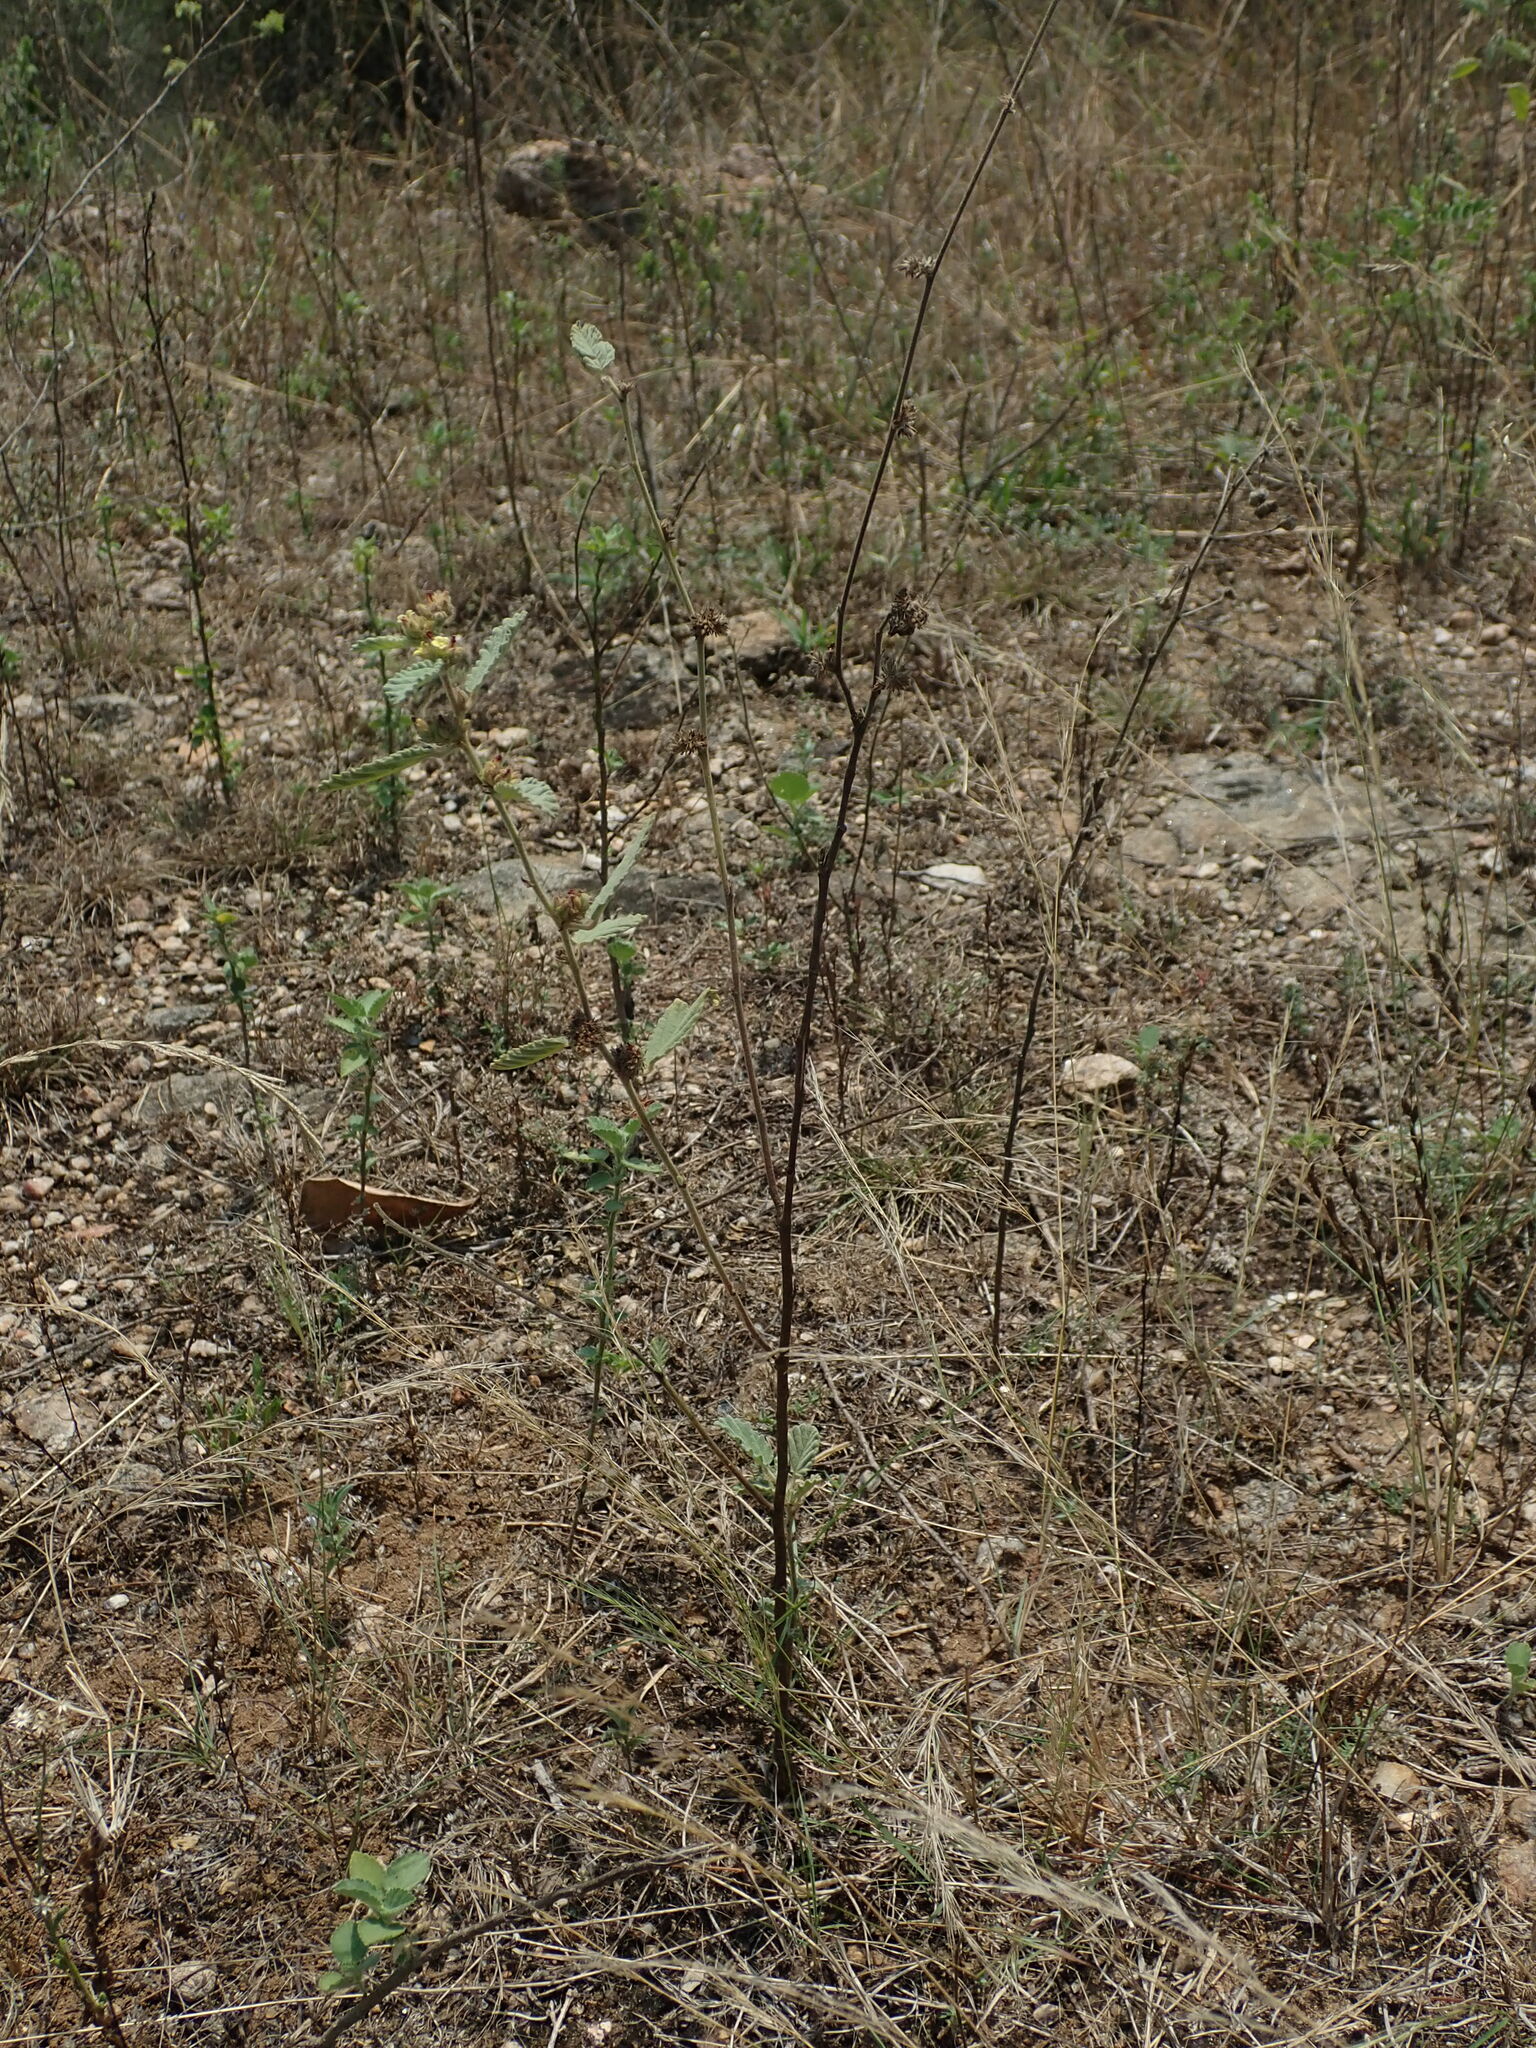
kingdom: Plantae
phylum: Tracheophyta
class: Magnoliopsida
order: Malvales
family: Malvaceae
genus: Waltheria
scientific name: Waltheria indica
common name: Leather-coat
